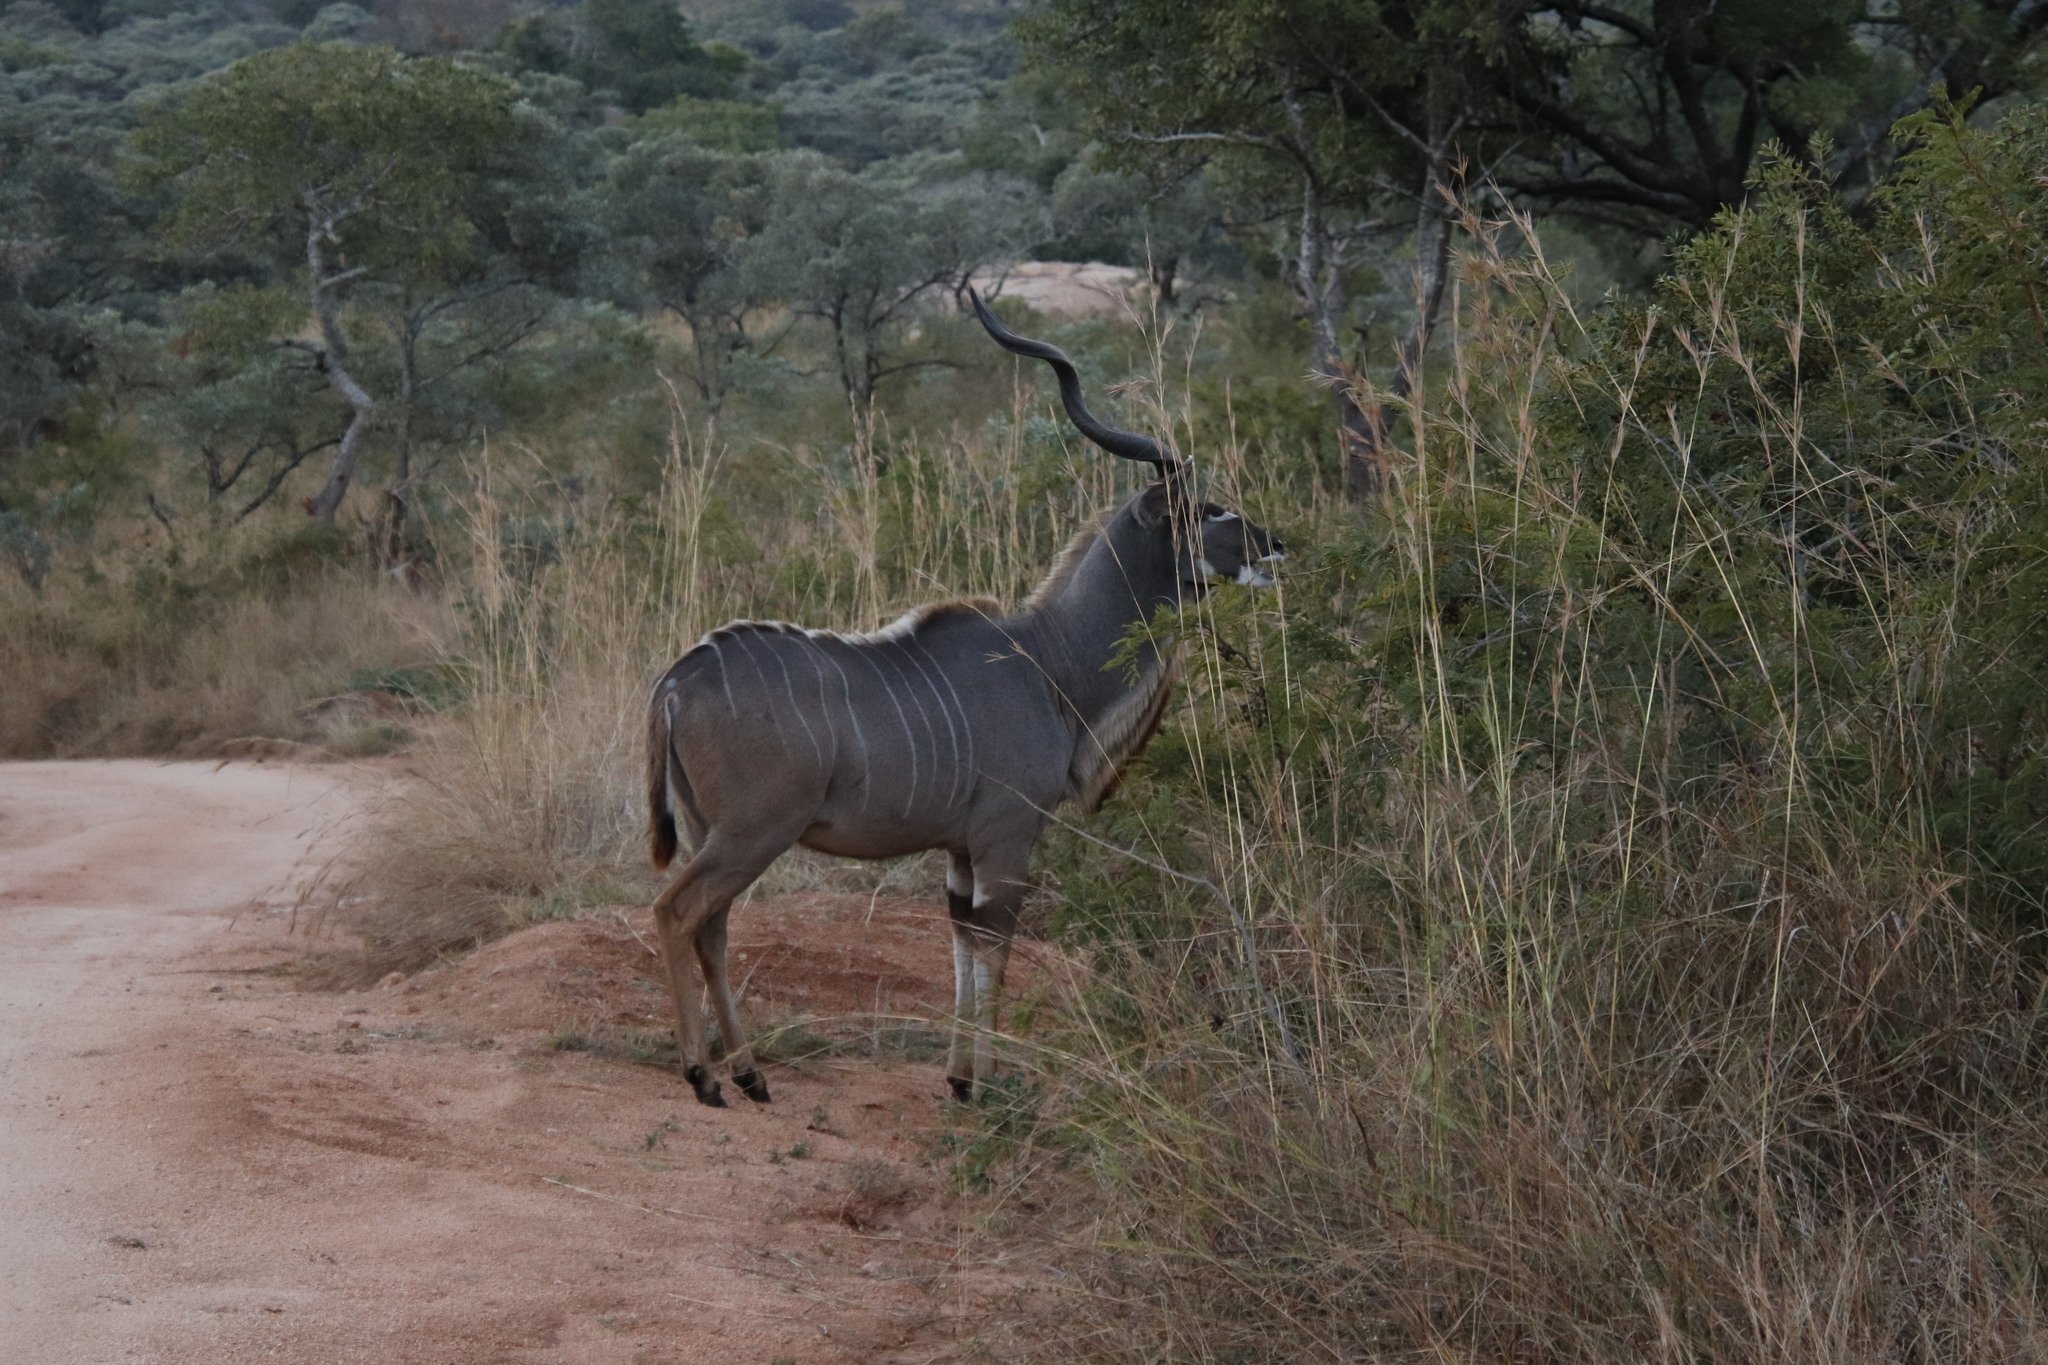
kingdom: Animalia
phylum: Chordata
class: Mammalia
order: Artiodactyla
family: Bovidae
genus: Tragelaphus
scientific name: Tragelaphus strepsiceros
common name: Greater kudu
